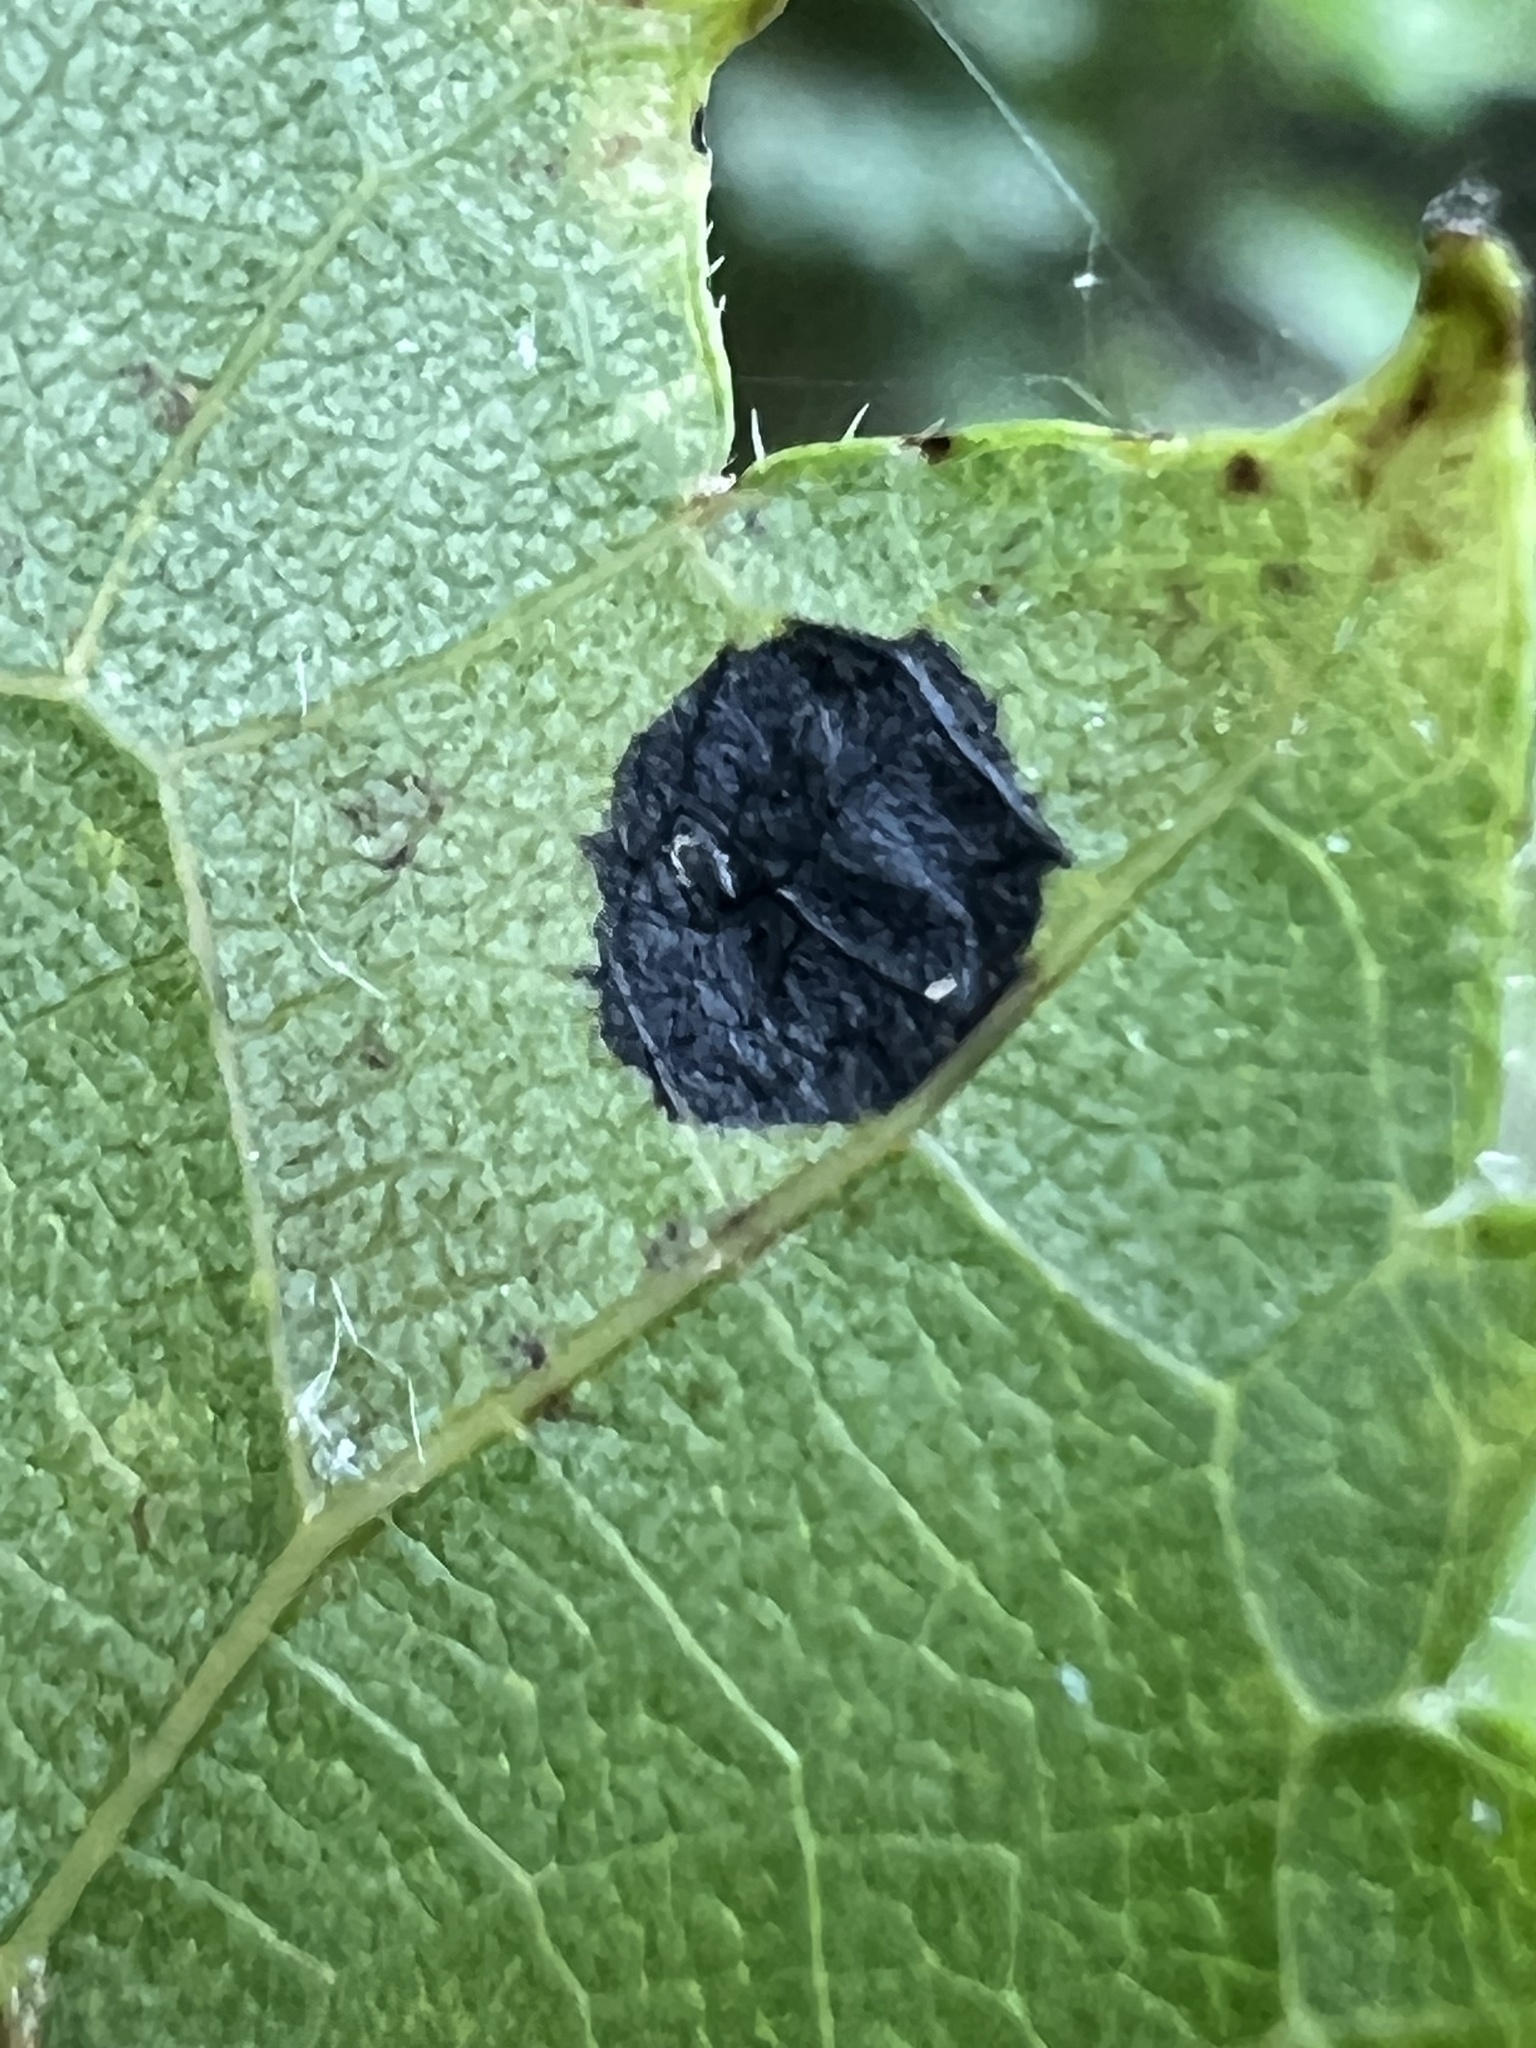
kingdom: Fungi
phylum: Ascomycota
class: Leotiomycetes
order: Rhytismatales
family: Rhytismataceae
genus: Rhytisma
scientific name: Rhytisma
